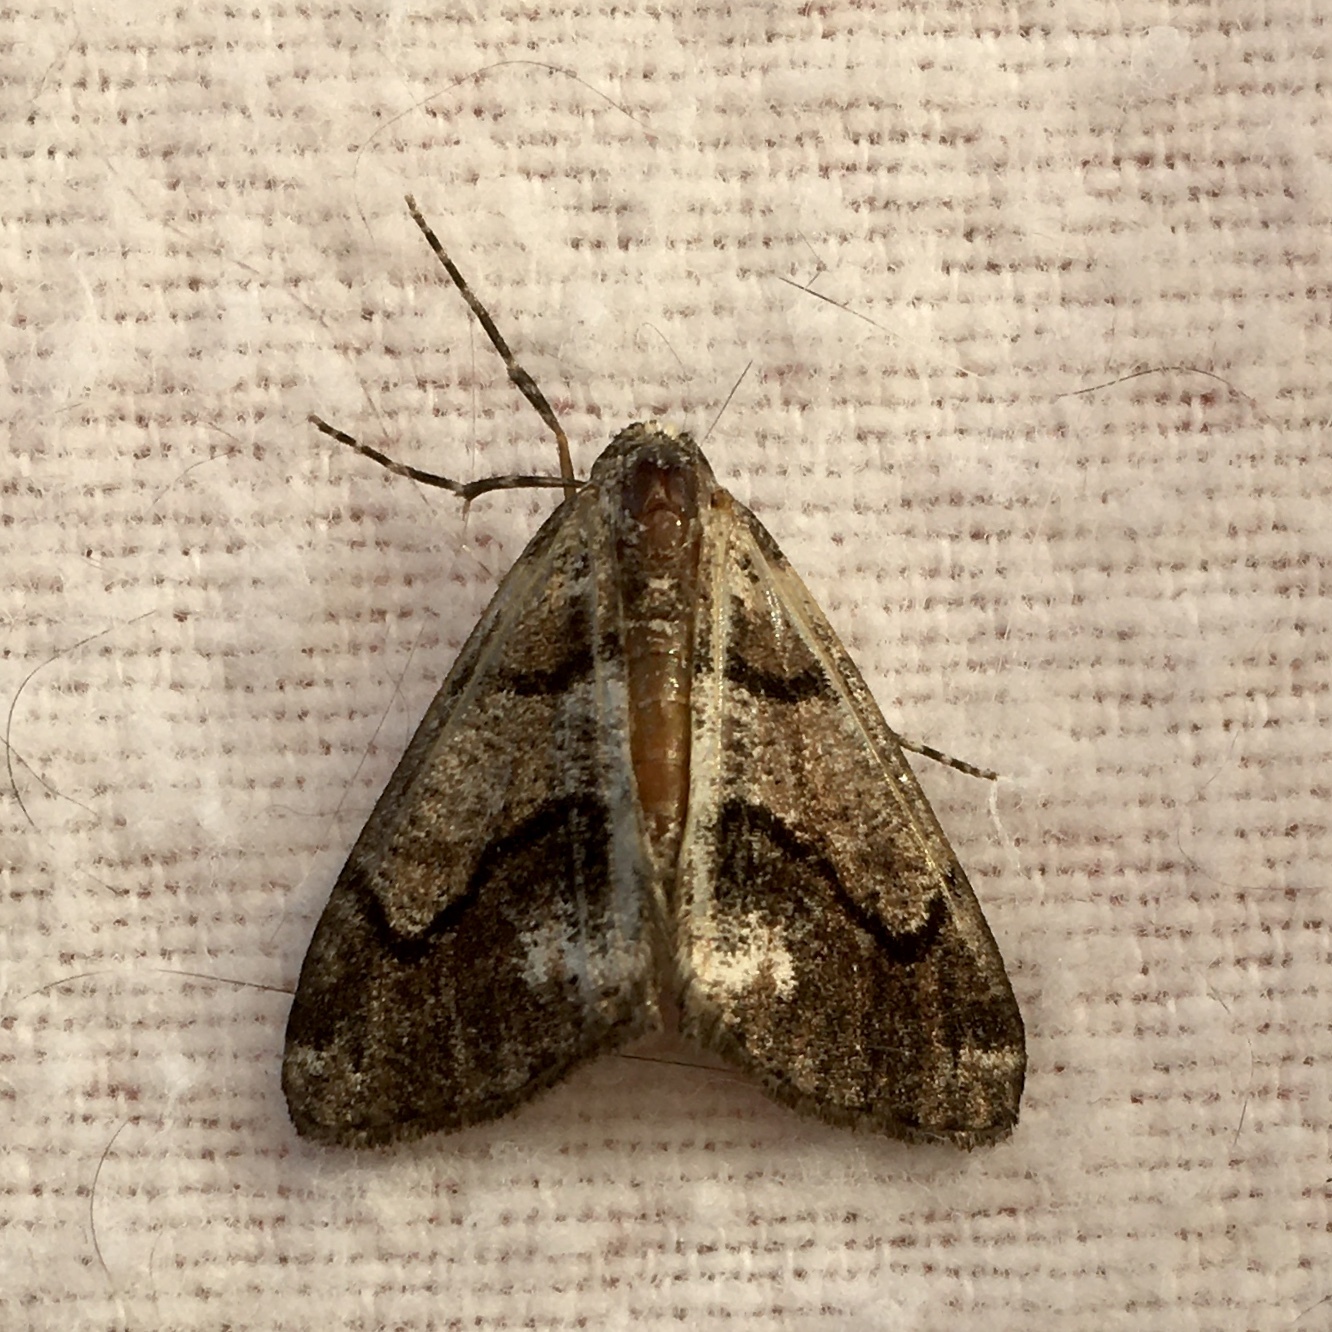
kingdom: Animalia
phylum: Arthropoda
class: Insecta
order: Lepidoptera
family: Geometridae
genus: Gabriola
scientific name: Gabriola dyari
